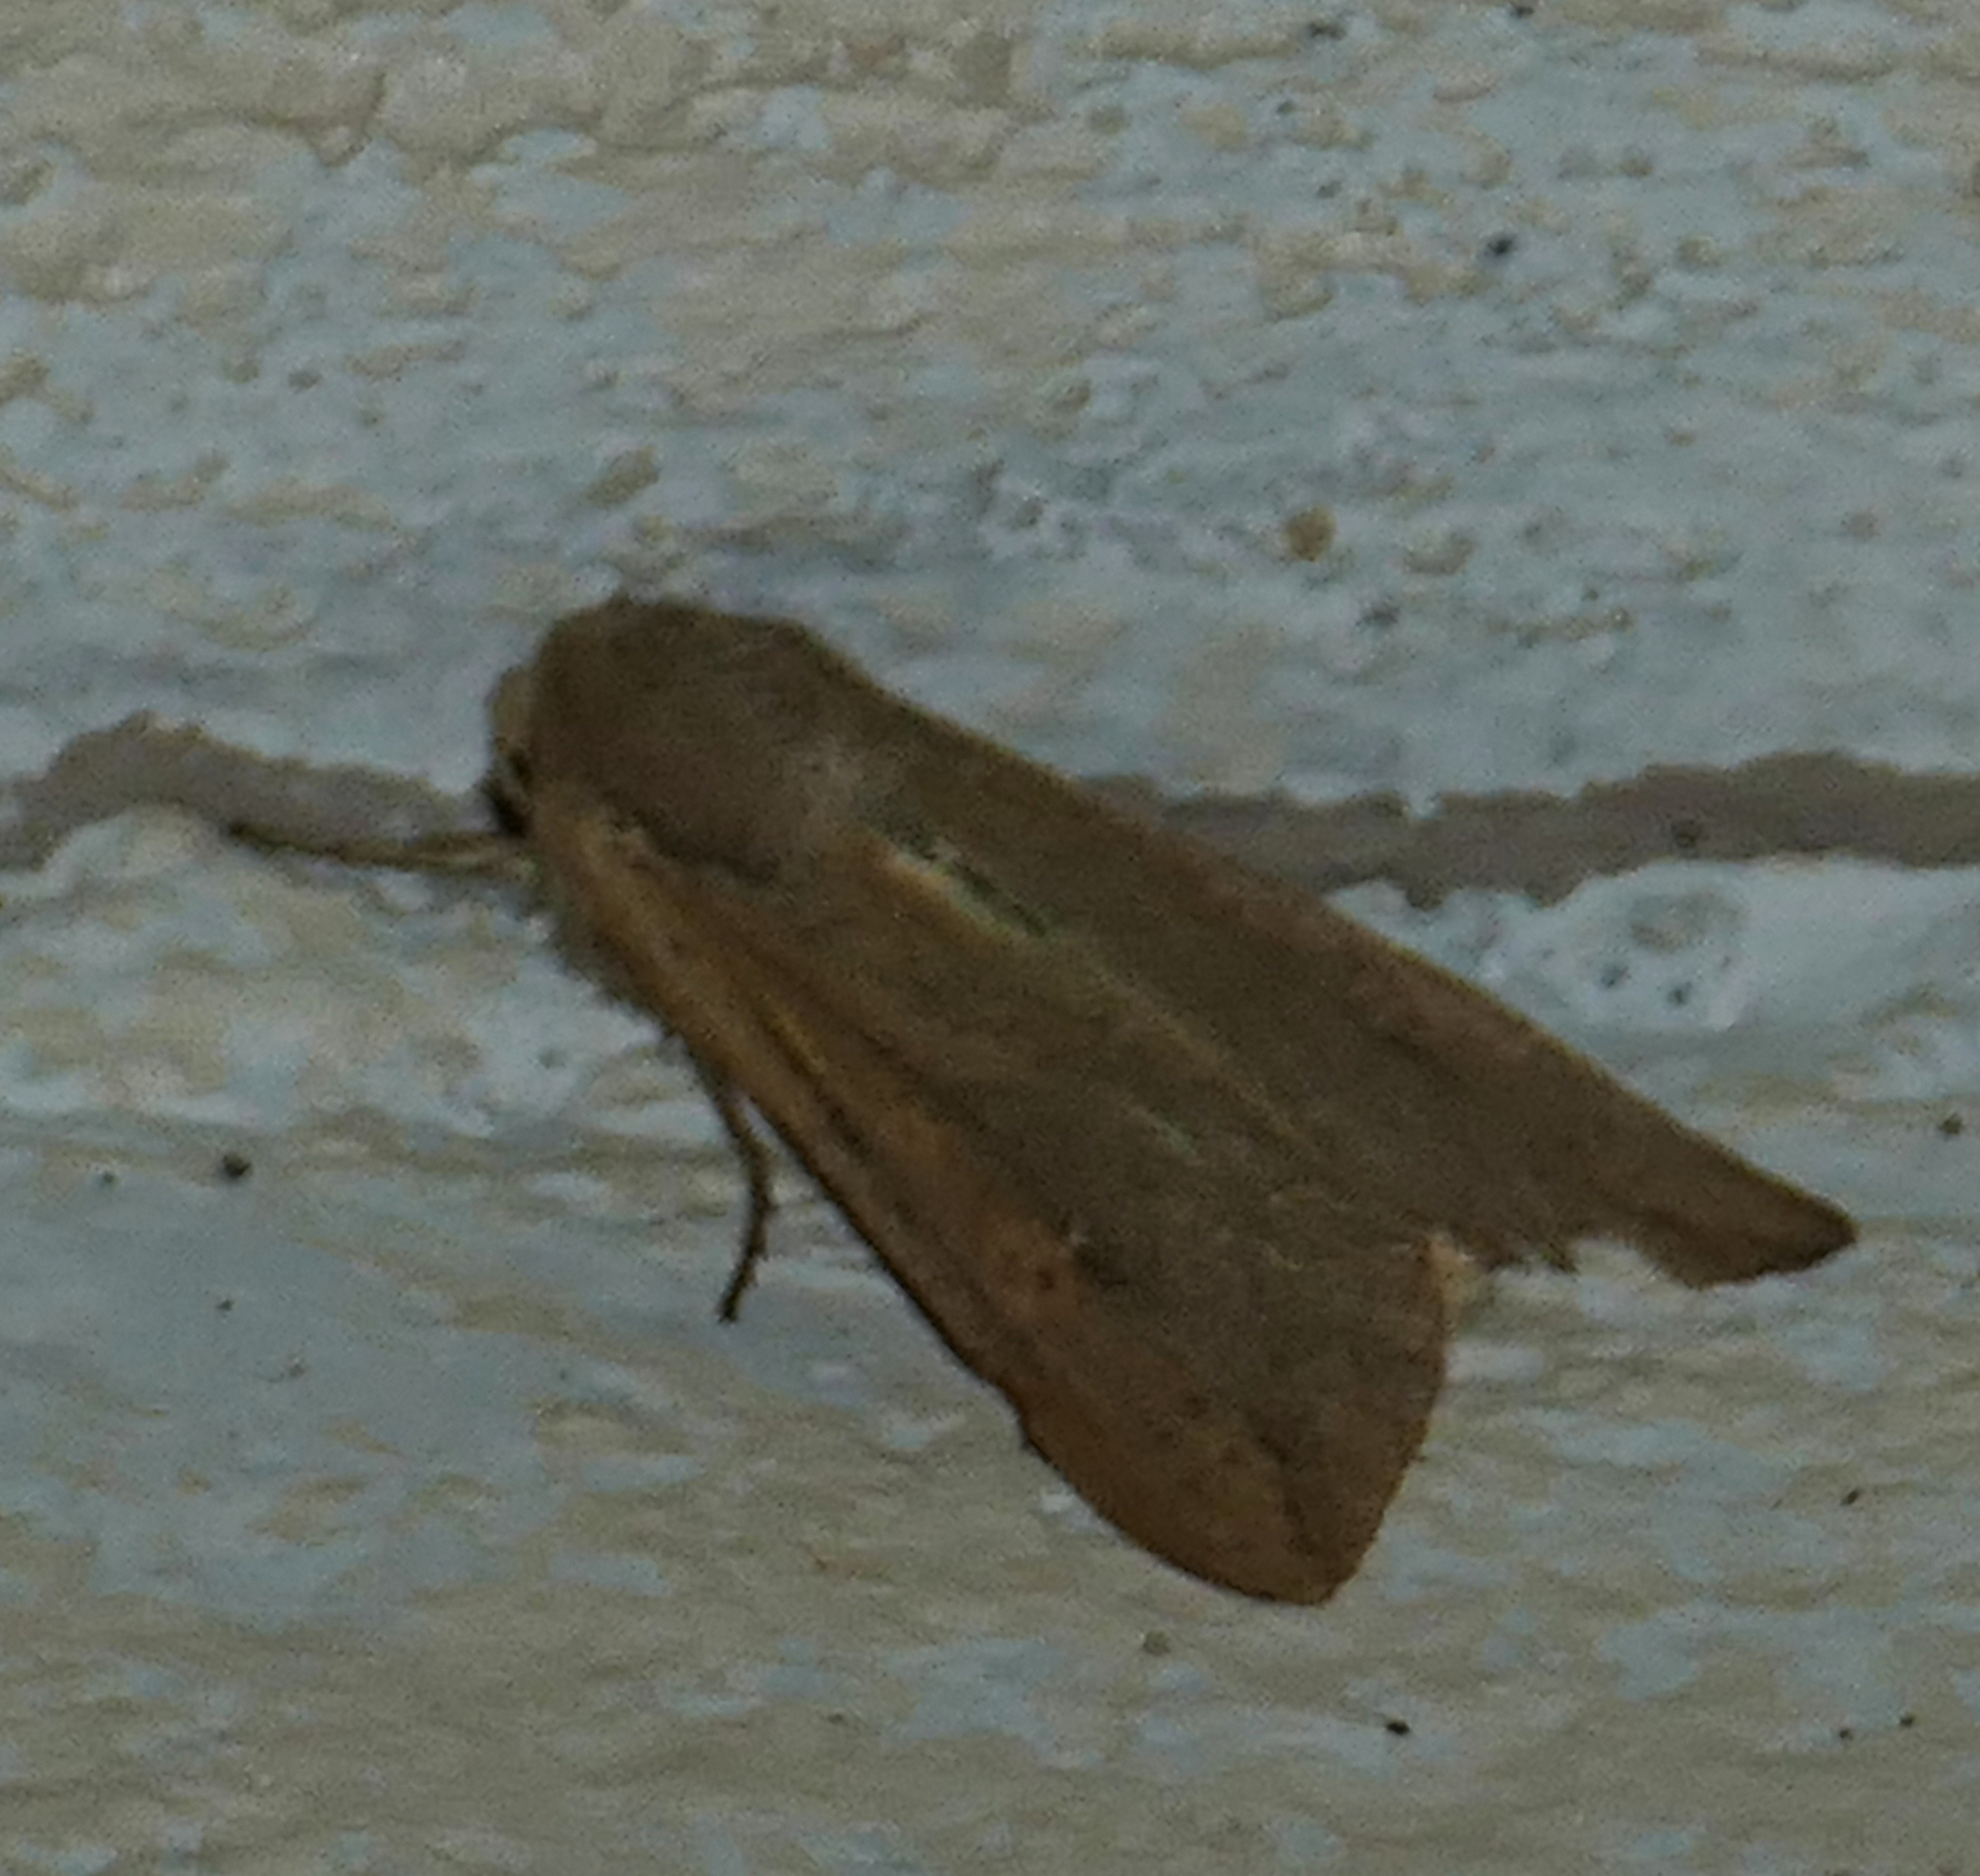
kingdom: Animalia
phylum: Arthropoda
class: Insecta
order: Lepidoptera
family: Noctuidae
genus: Mythimna
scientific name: Mythimna unipuncta
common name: White-speck
